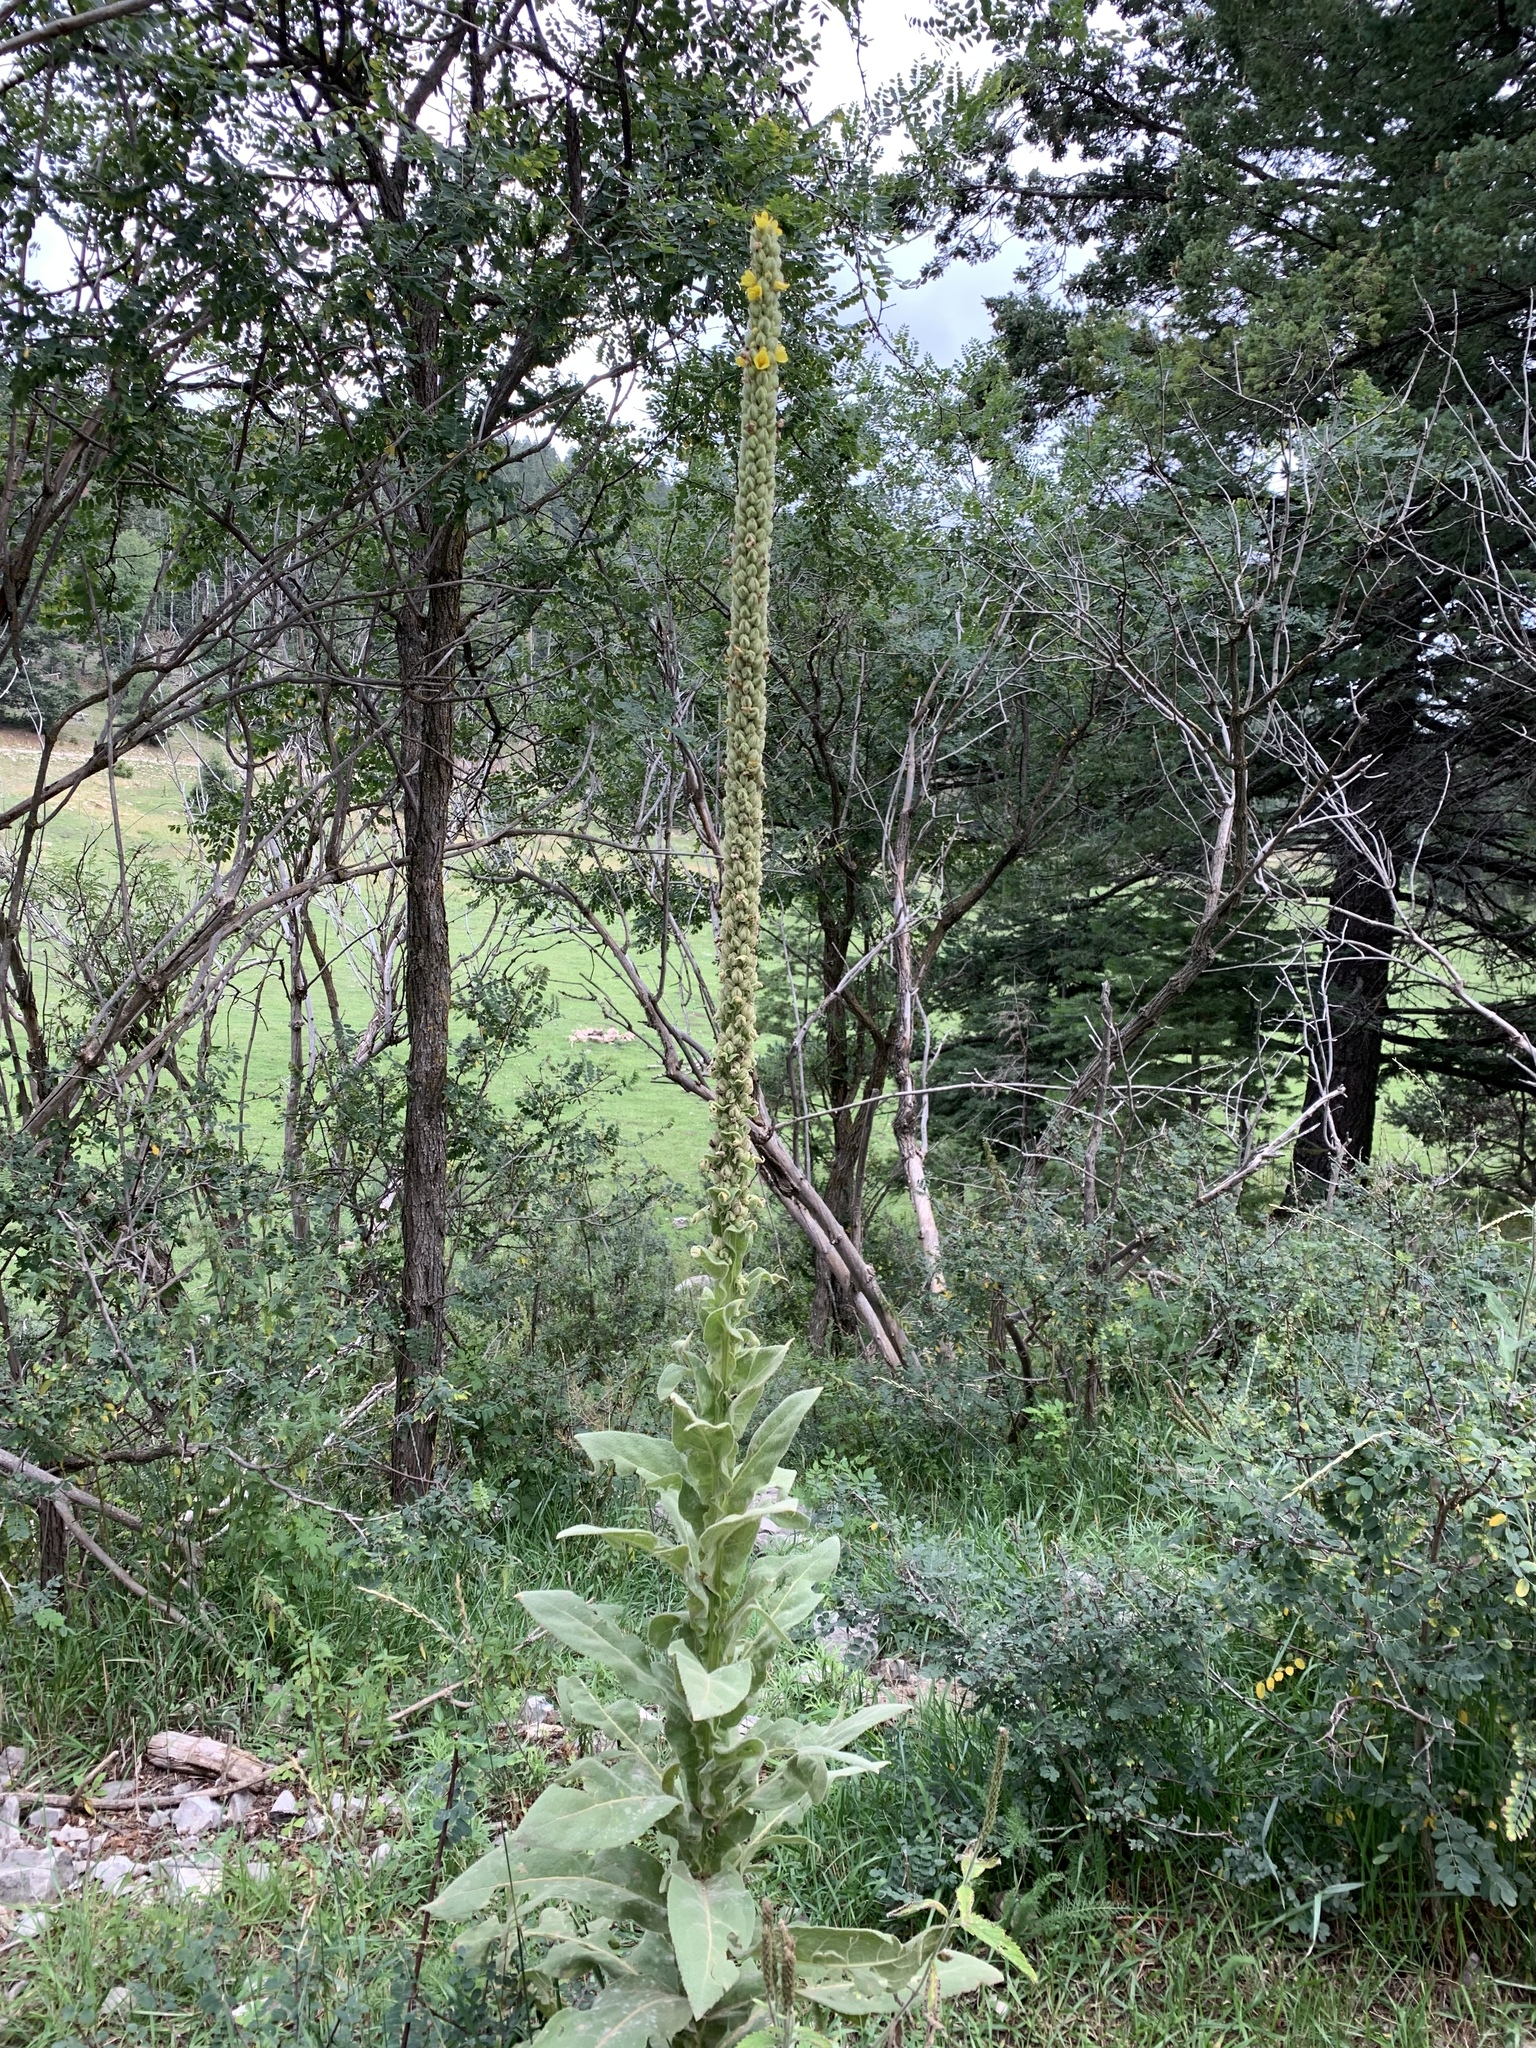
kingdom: Plantae
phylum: Tracheophyta
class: Magnoliopsida
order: Lamiales
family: Scrophulariaceae
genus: Verbascum
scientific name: Verbascum thapsus
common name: Common mullein
